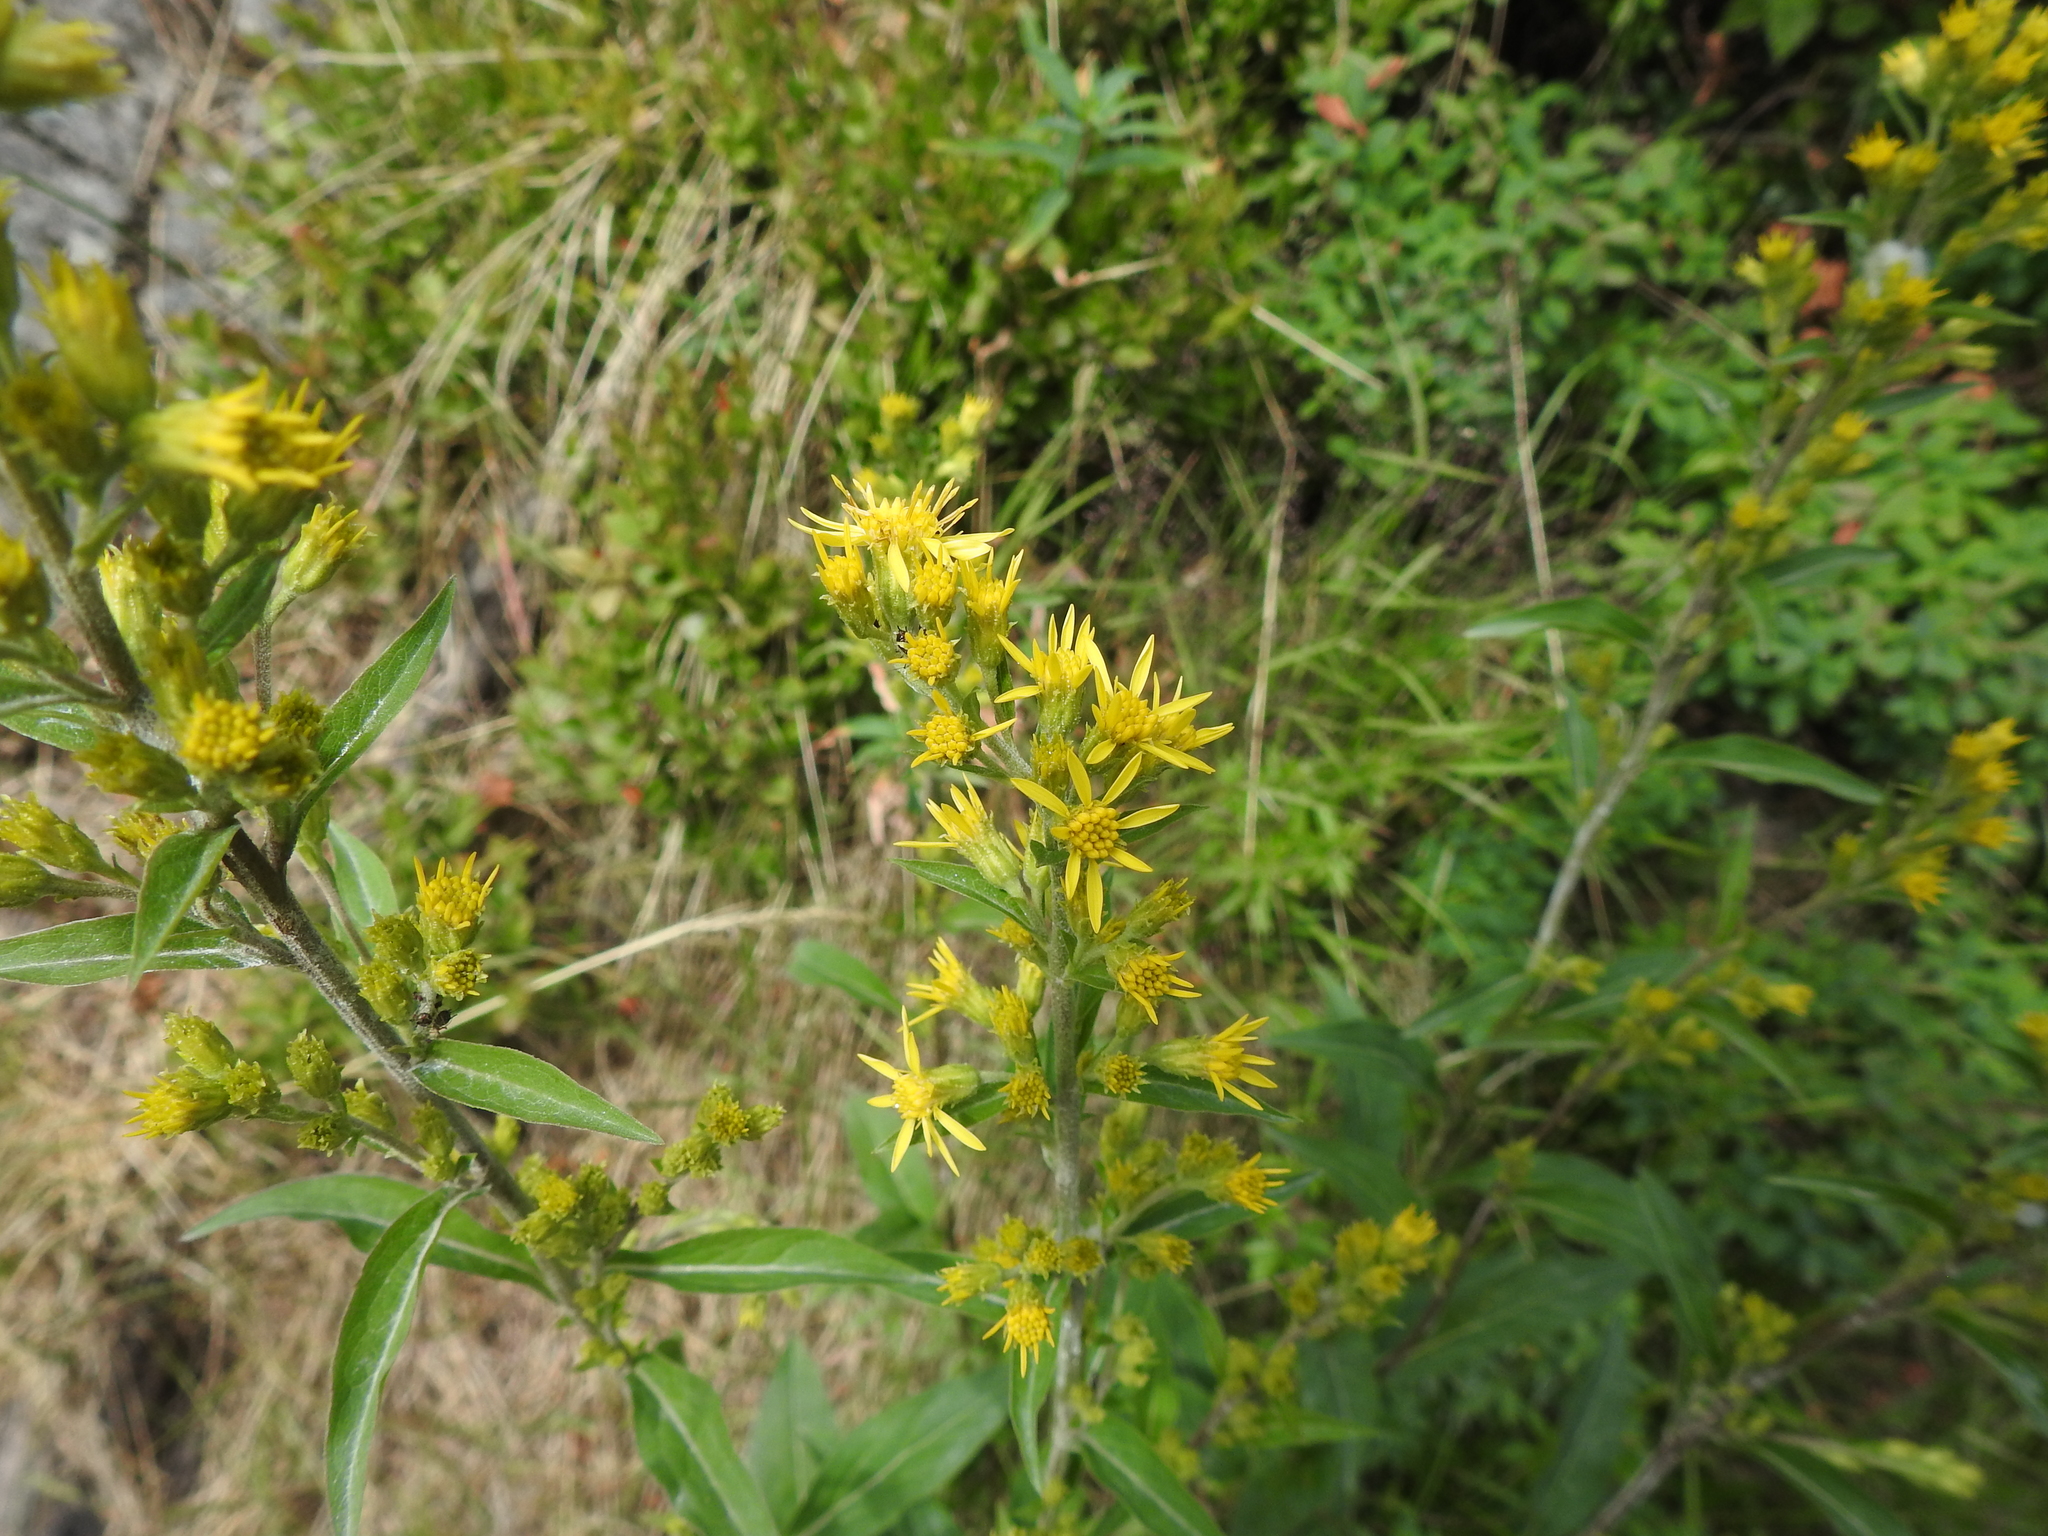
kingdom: Plantae
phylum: Tracheophyta
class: Magnoliopsida
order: Asterales
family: Asteraceae
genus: Solidago
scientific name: Solidago virgaurea
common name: Goldenrod
